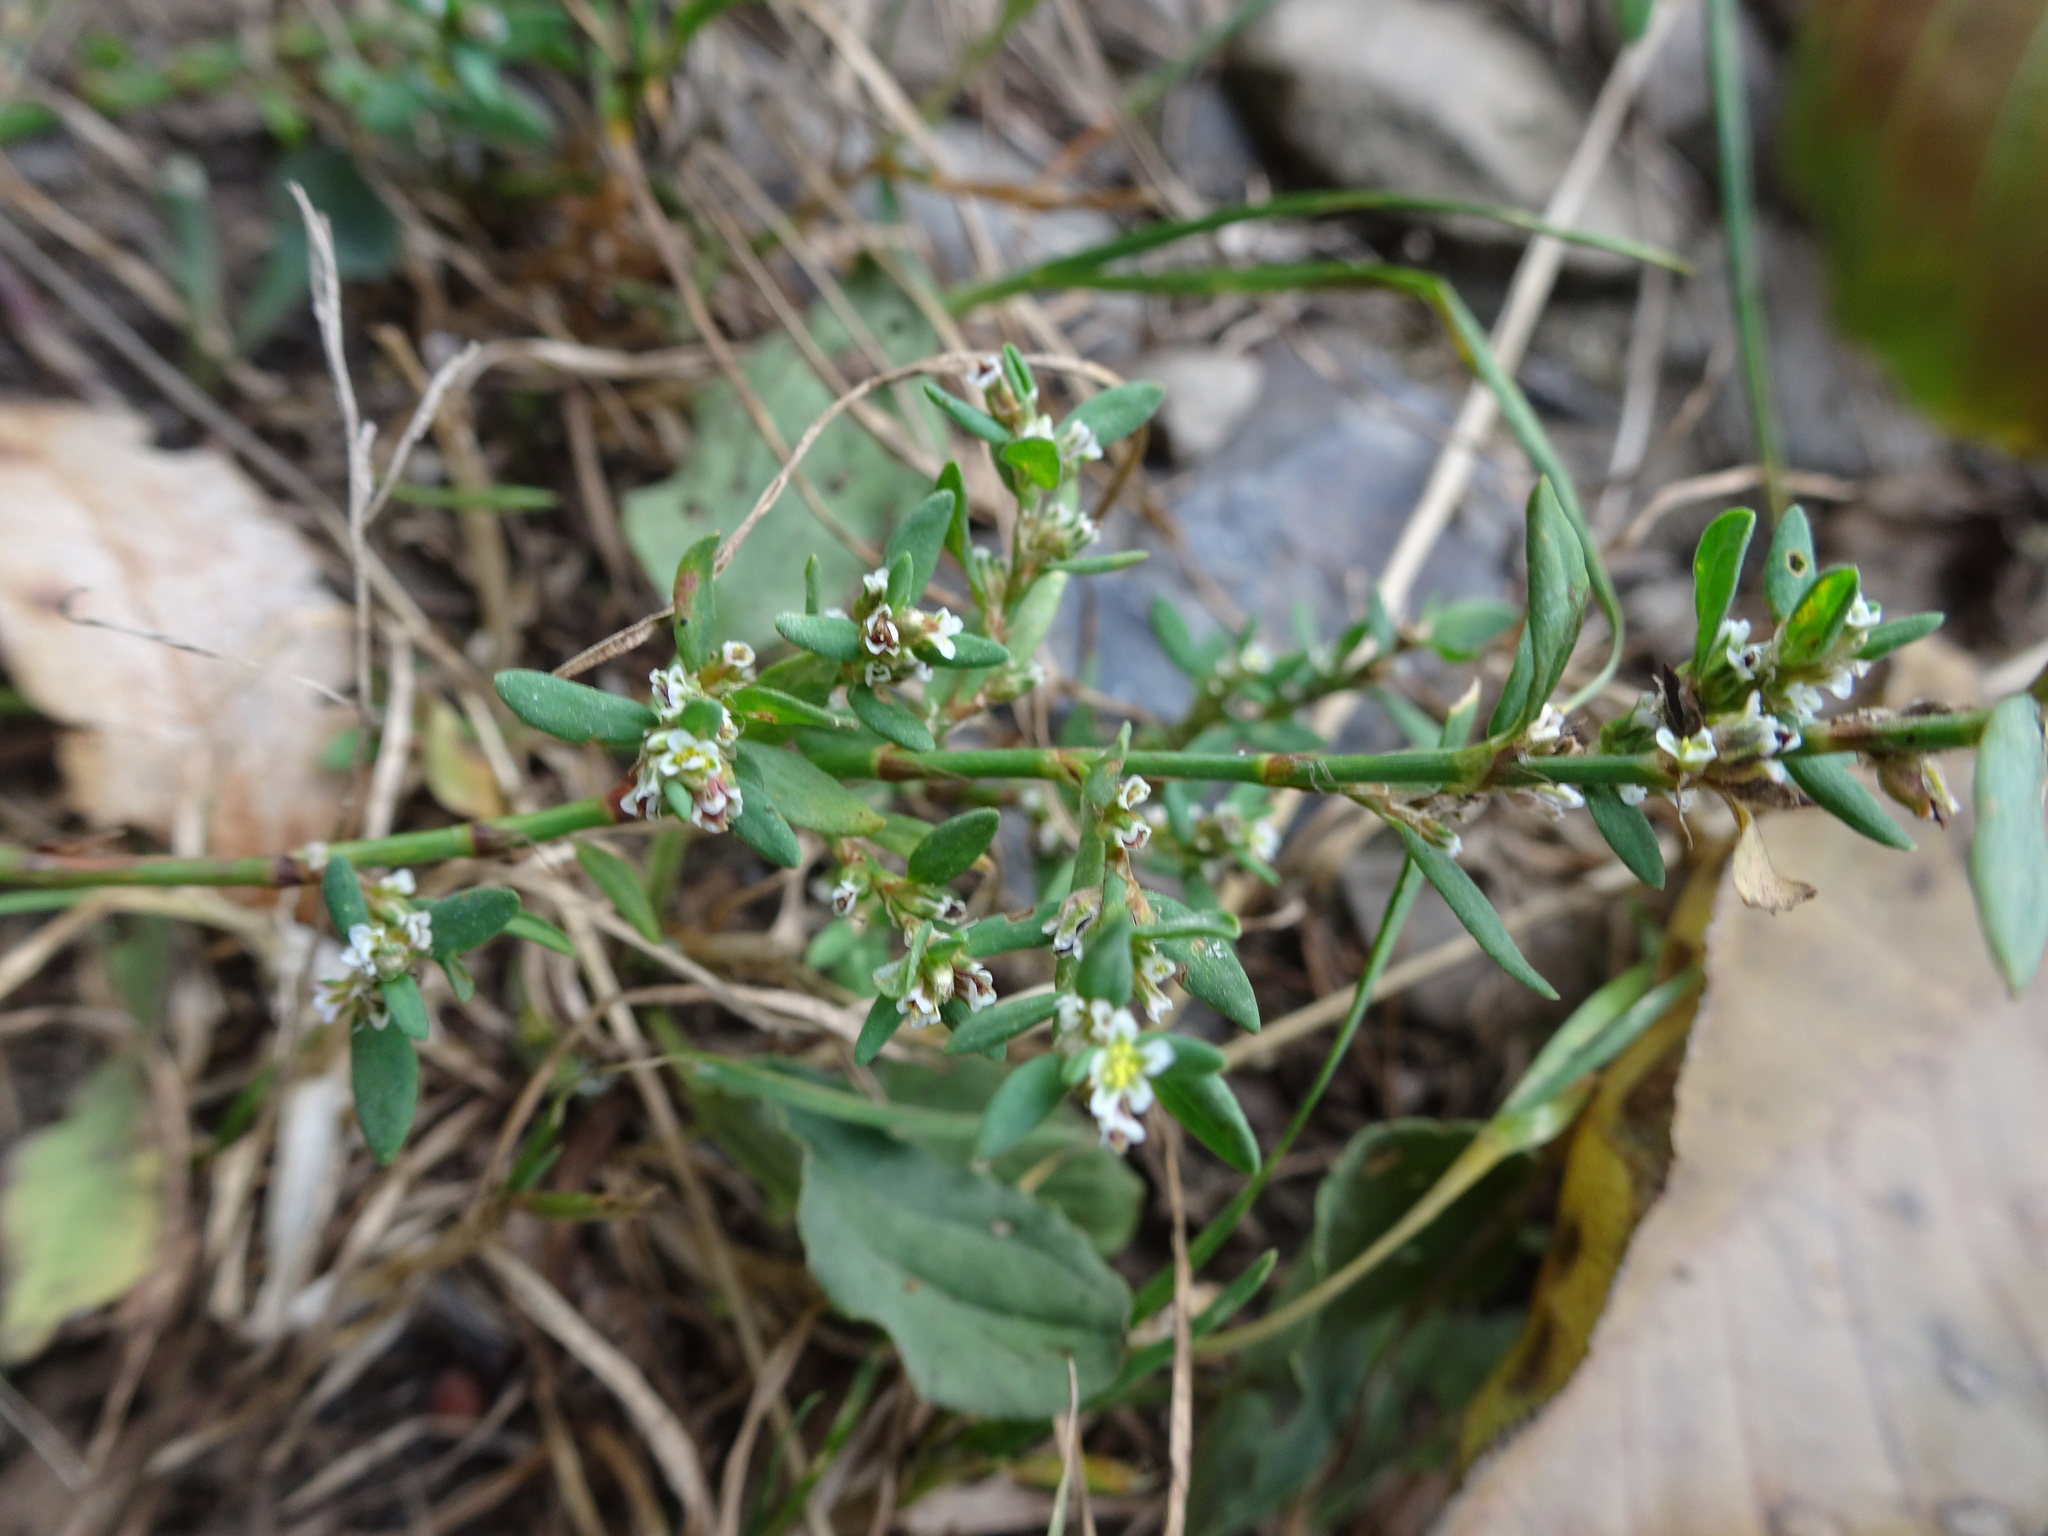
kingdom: Plantae
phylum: Tracheophyta
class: Magnoliopsida
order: Caryophyllales
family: Polygonaceae
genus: Polygonum
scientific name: Polygonum aviculare
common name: Prostrate knotweed
